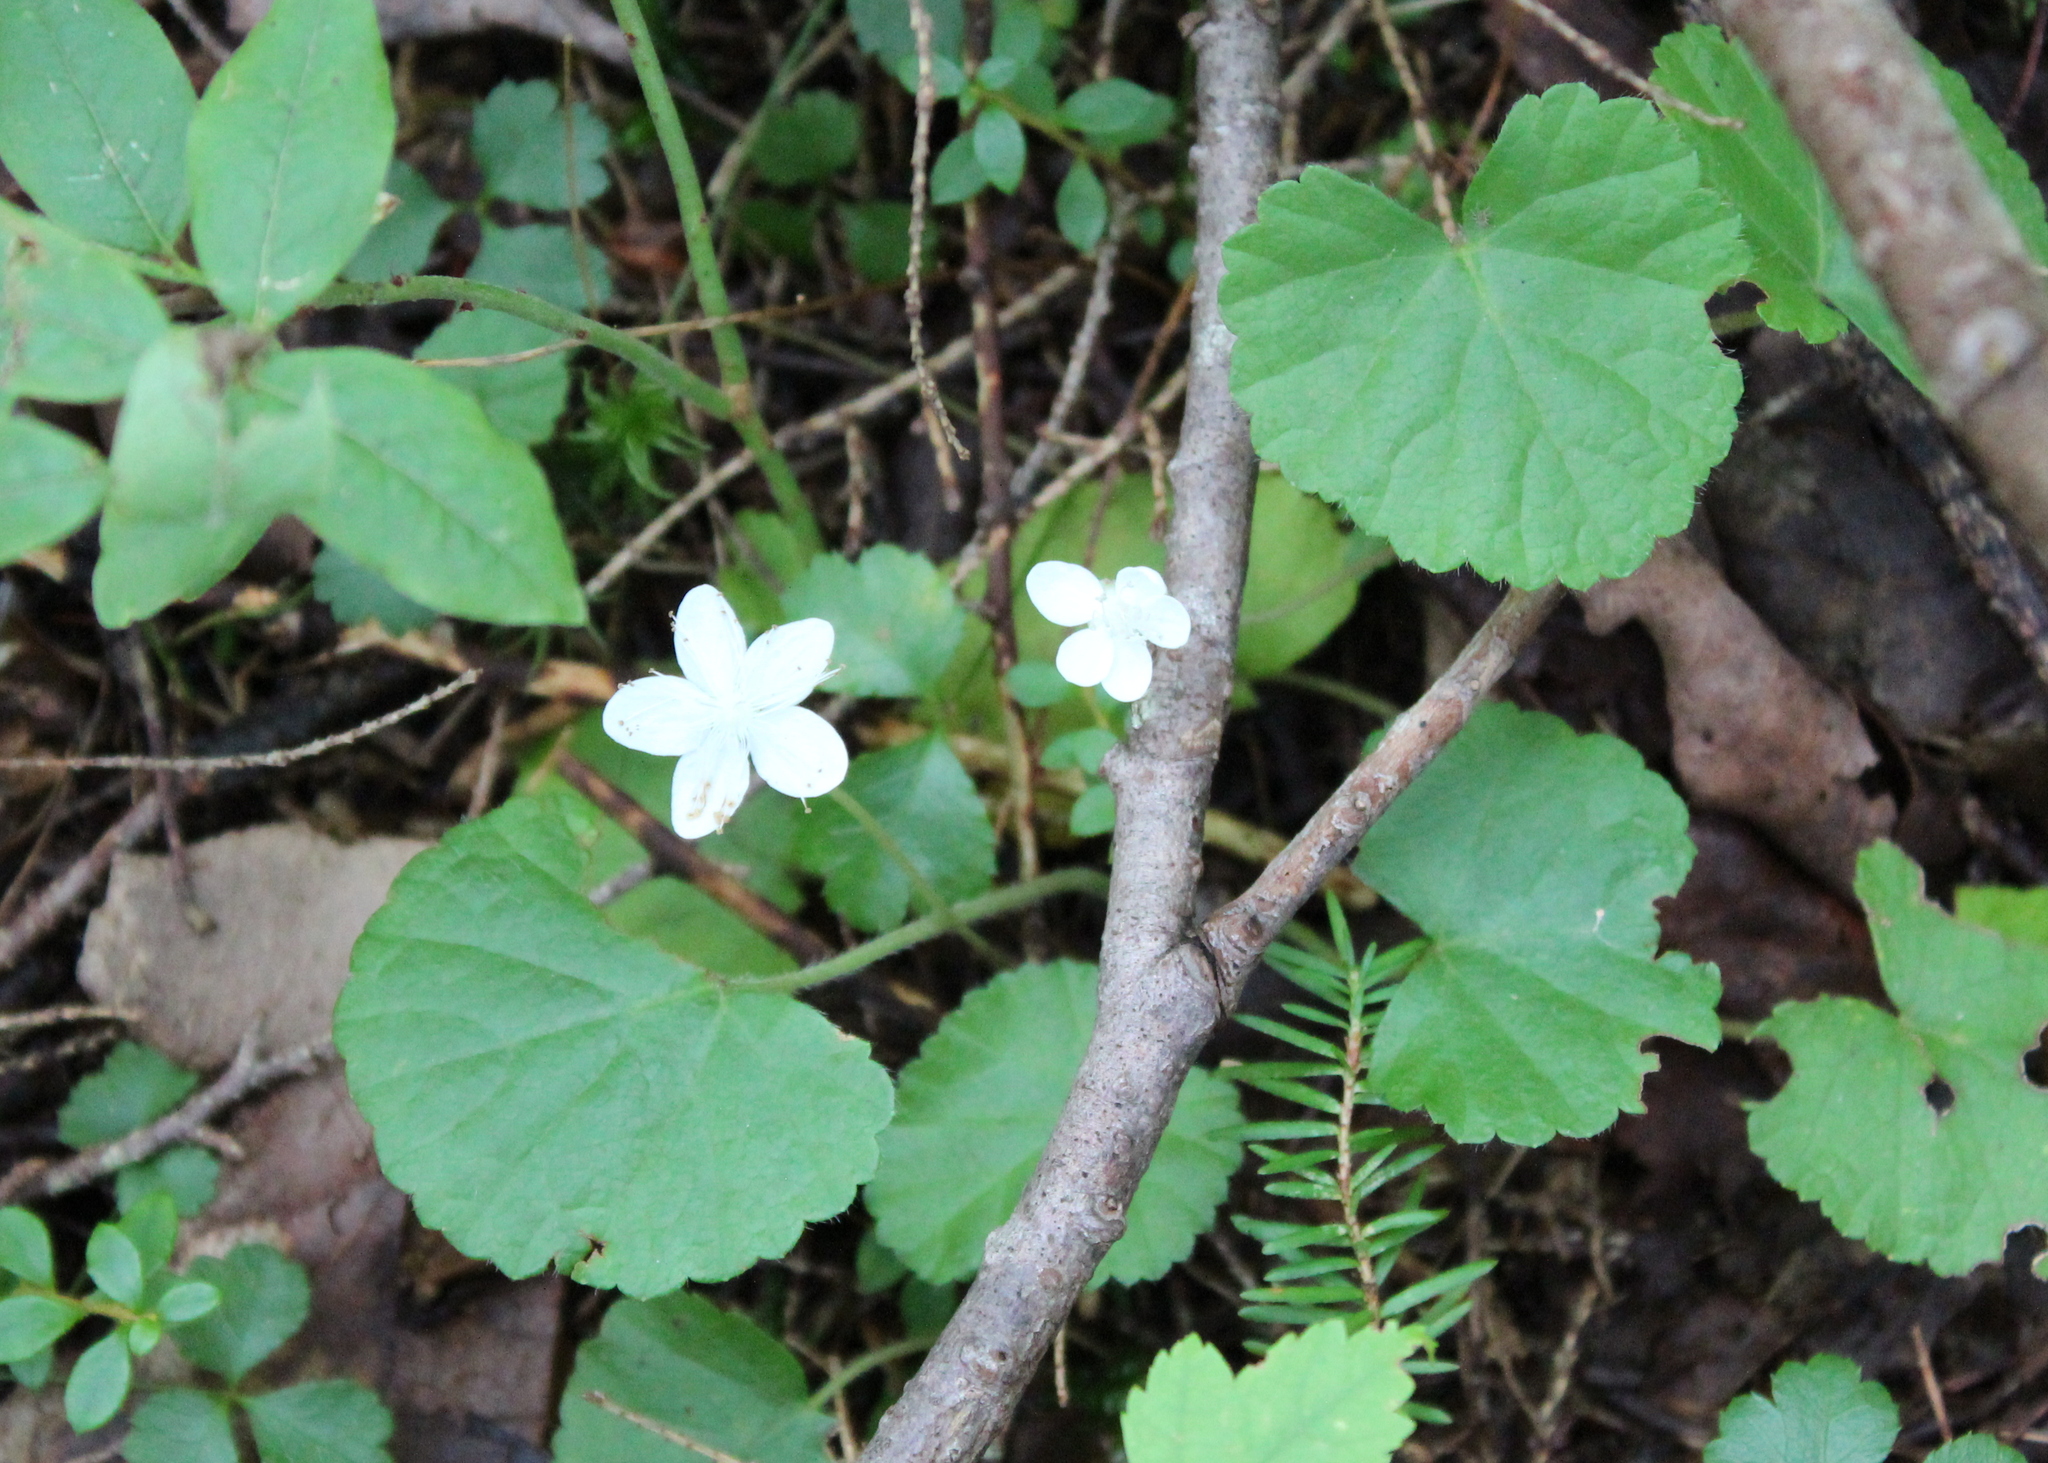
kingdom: Plantae
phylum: Tracheophyta
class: Magnoliopsida
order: Rosales
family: Rosaceae
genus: Dalibarda
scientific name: Dalibarda repens
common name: Dewdrop
